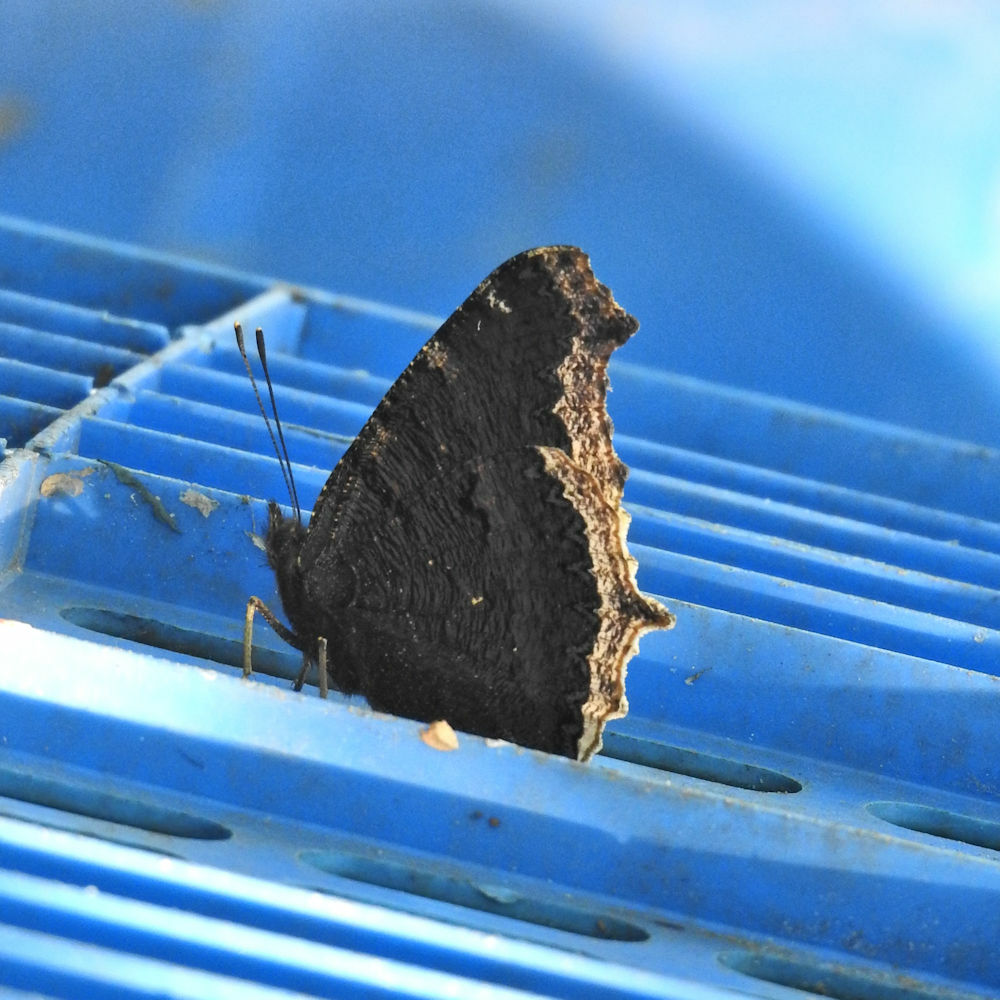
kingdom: Animalia
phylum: Arthropoda
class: Insecta
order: Lepidoptera
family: Nymphalidae
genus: Nymphalis
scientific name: Nymphalis antiopa
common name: Camberwell beauty
